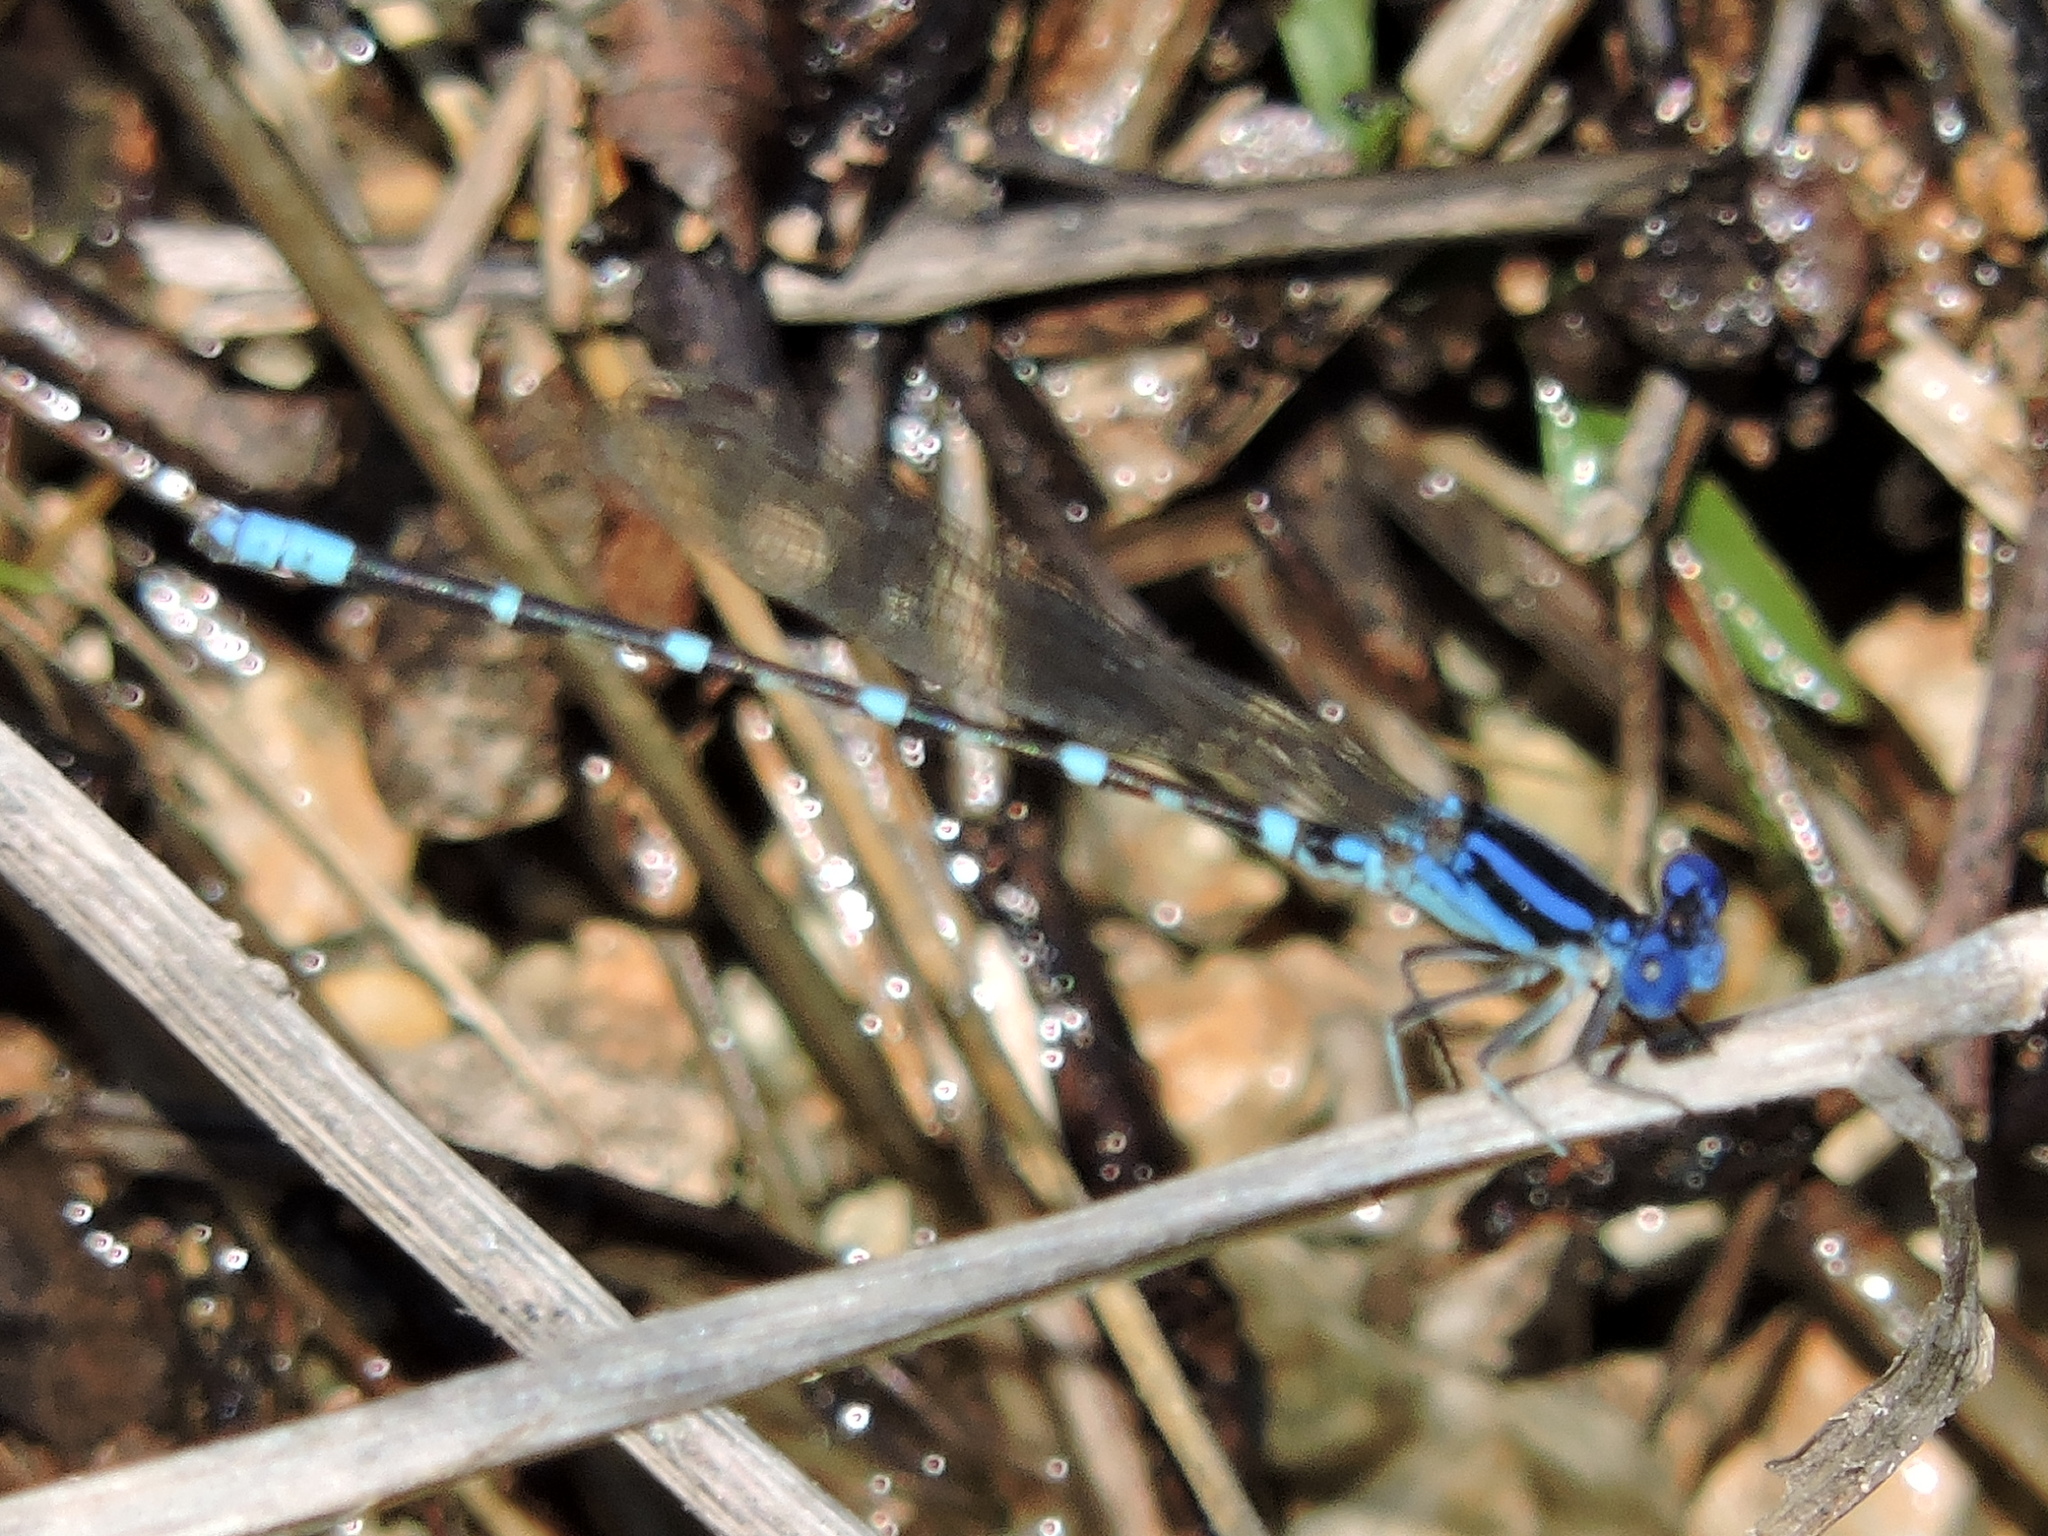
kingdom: Animalia
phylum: Arthropoda
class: Insecta
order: Odonata
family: Coenagrionidae
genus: Argia
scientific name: Argia sedula
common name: Blue-ringed dancer
